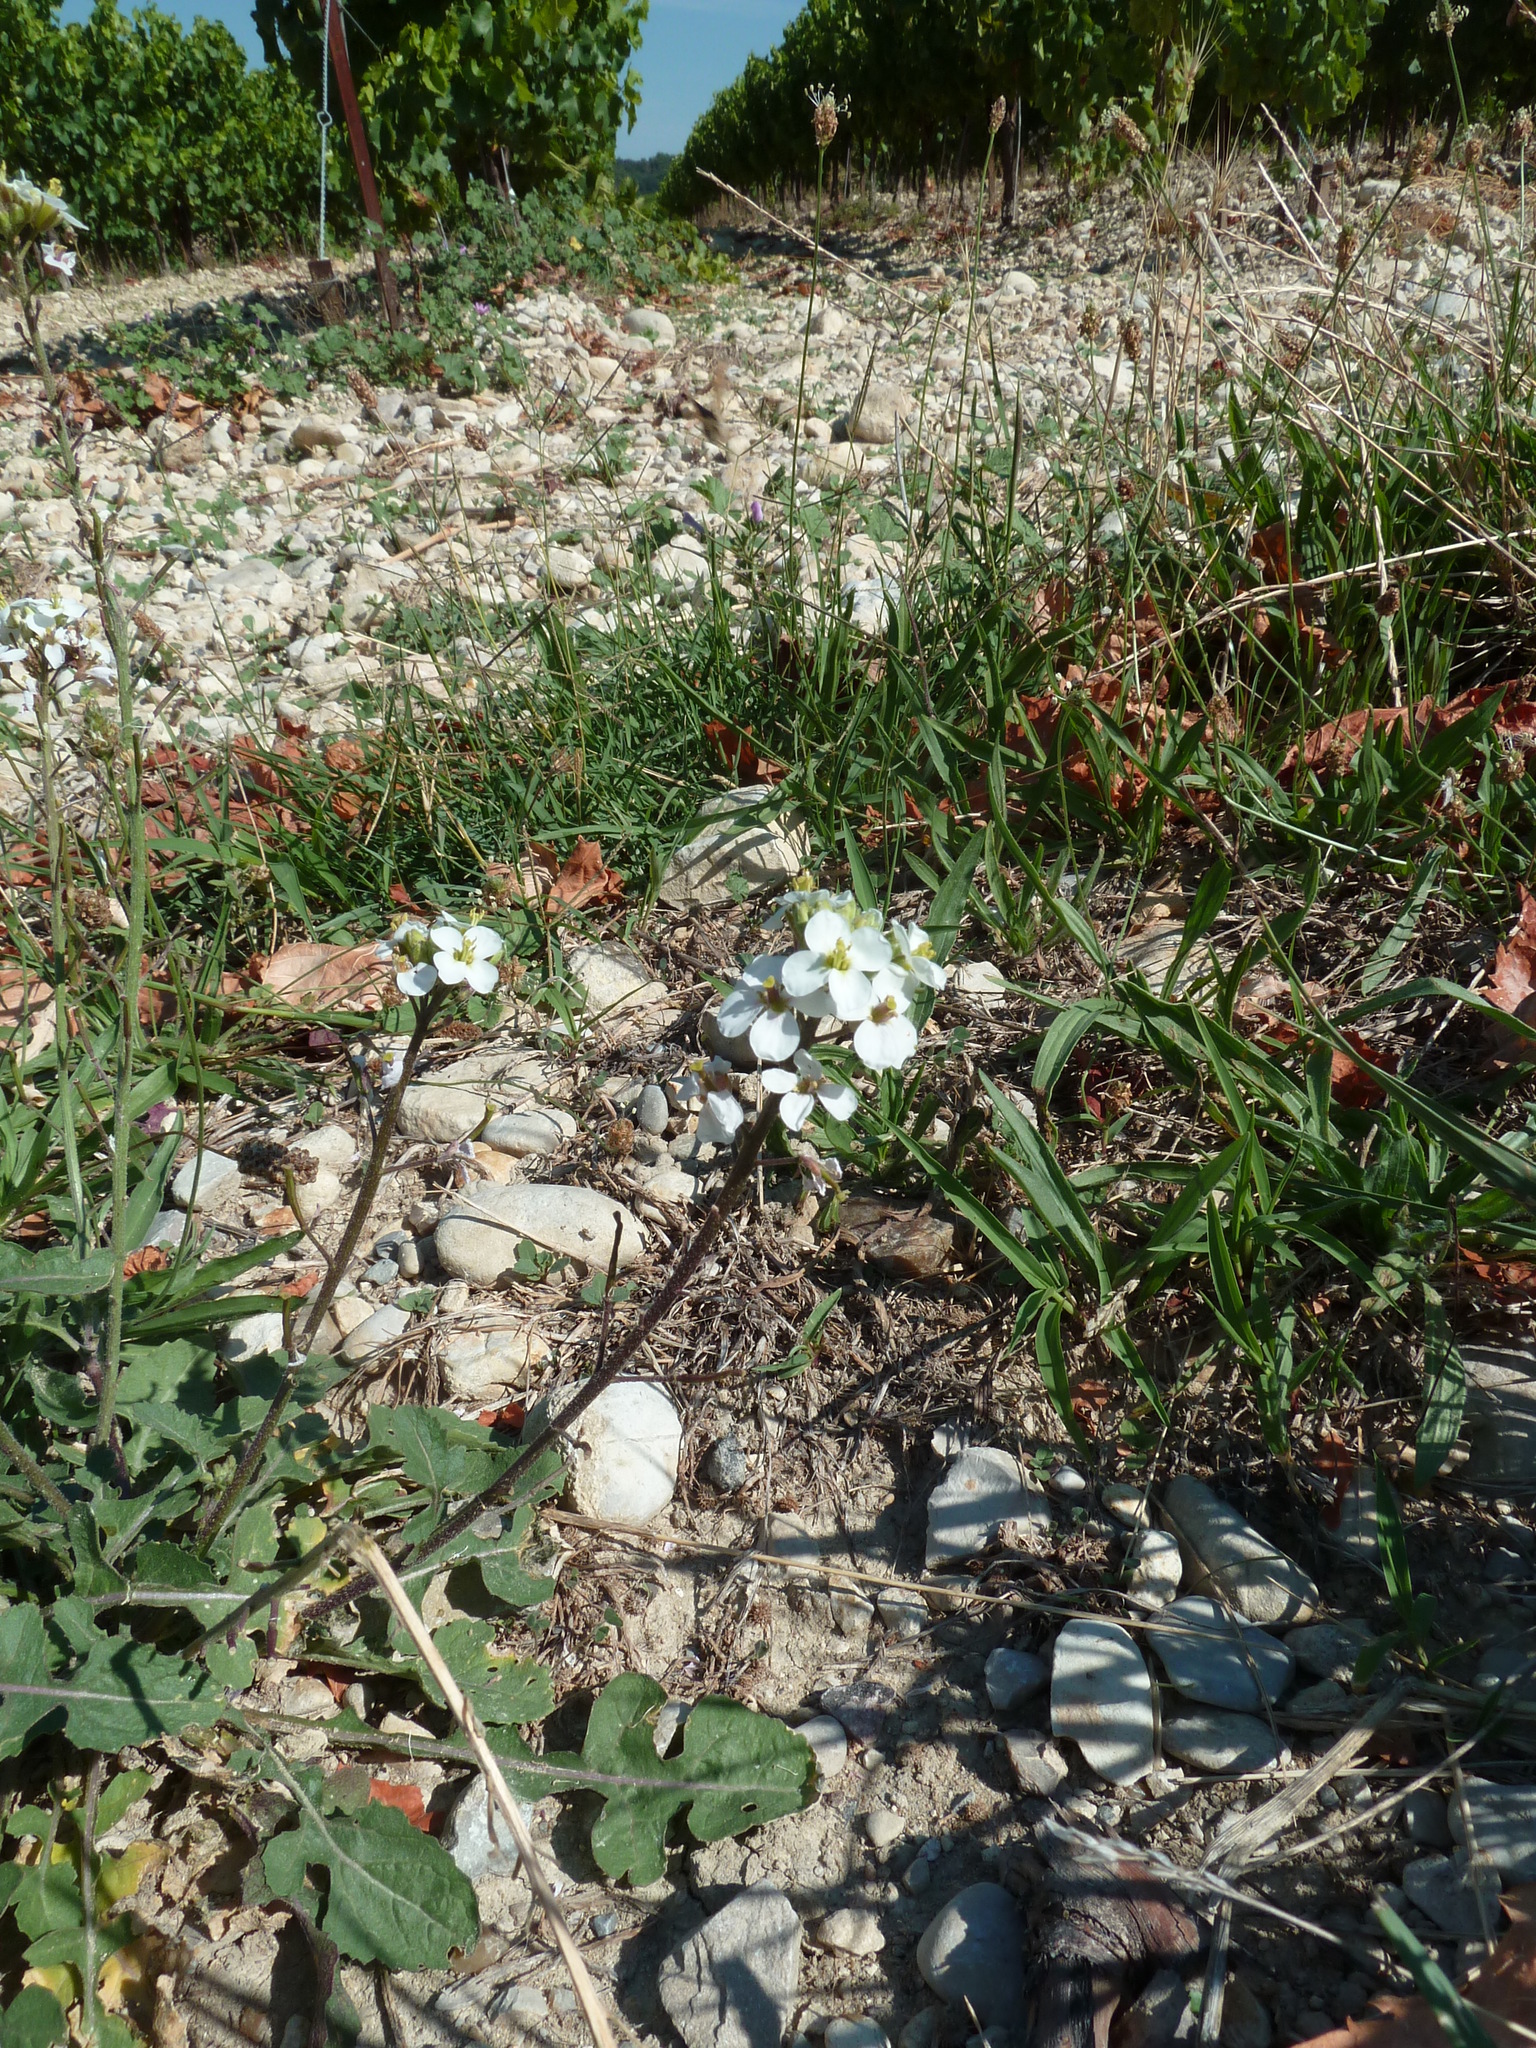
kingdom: Plantae
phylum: Tracheophyta
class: Magnoliopsida
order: Brassicales
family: Brassicaceae
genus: Diplotaxis
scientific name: Diplotaxis erucoides
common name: White rocket
